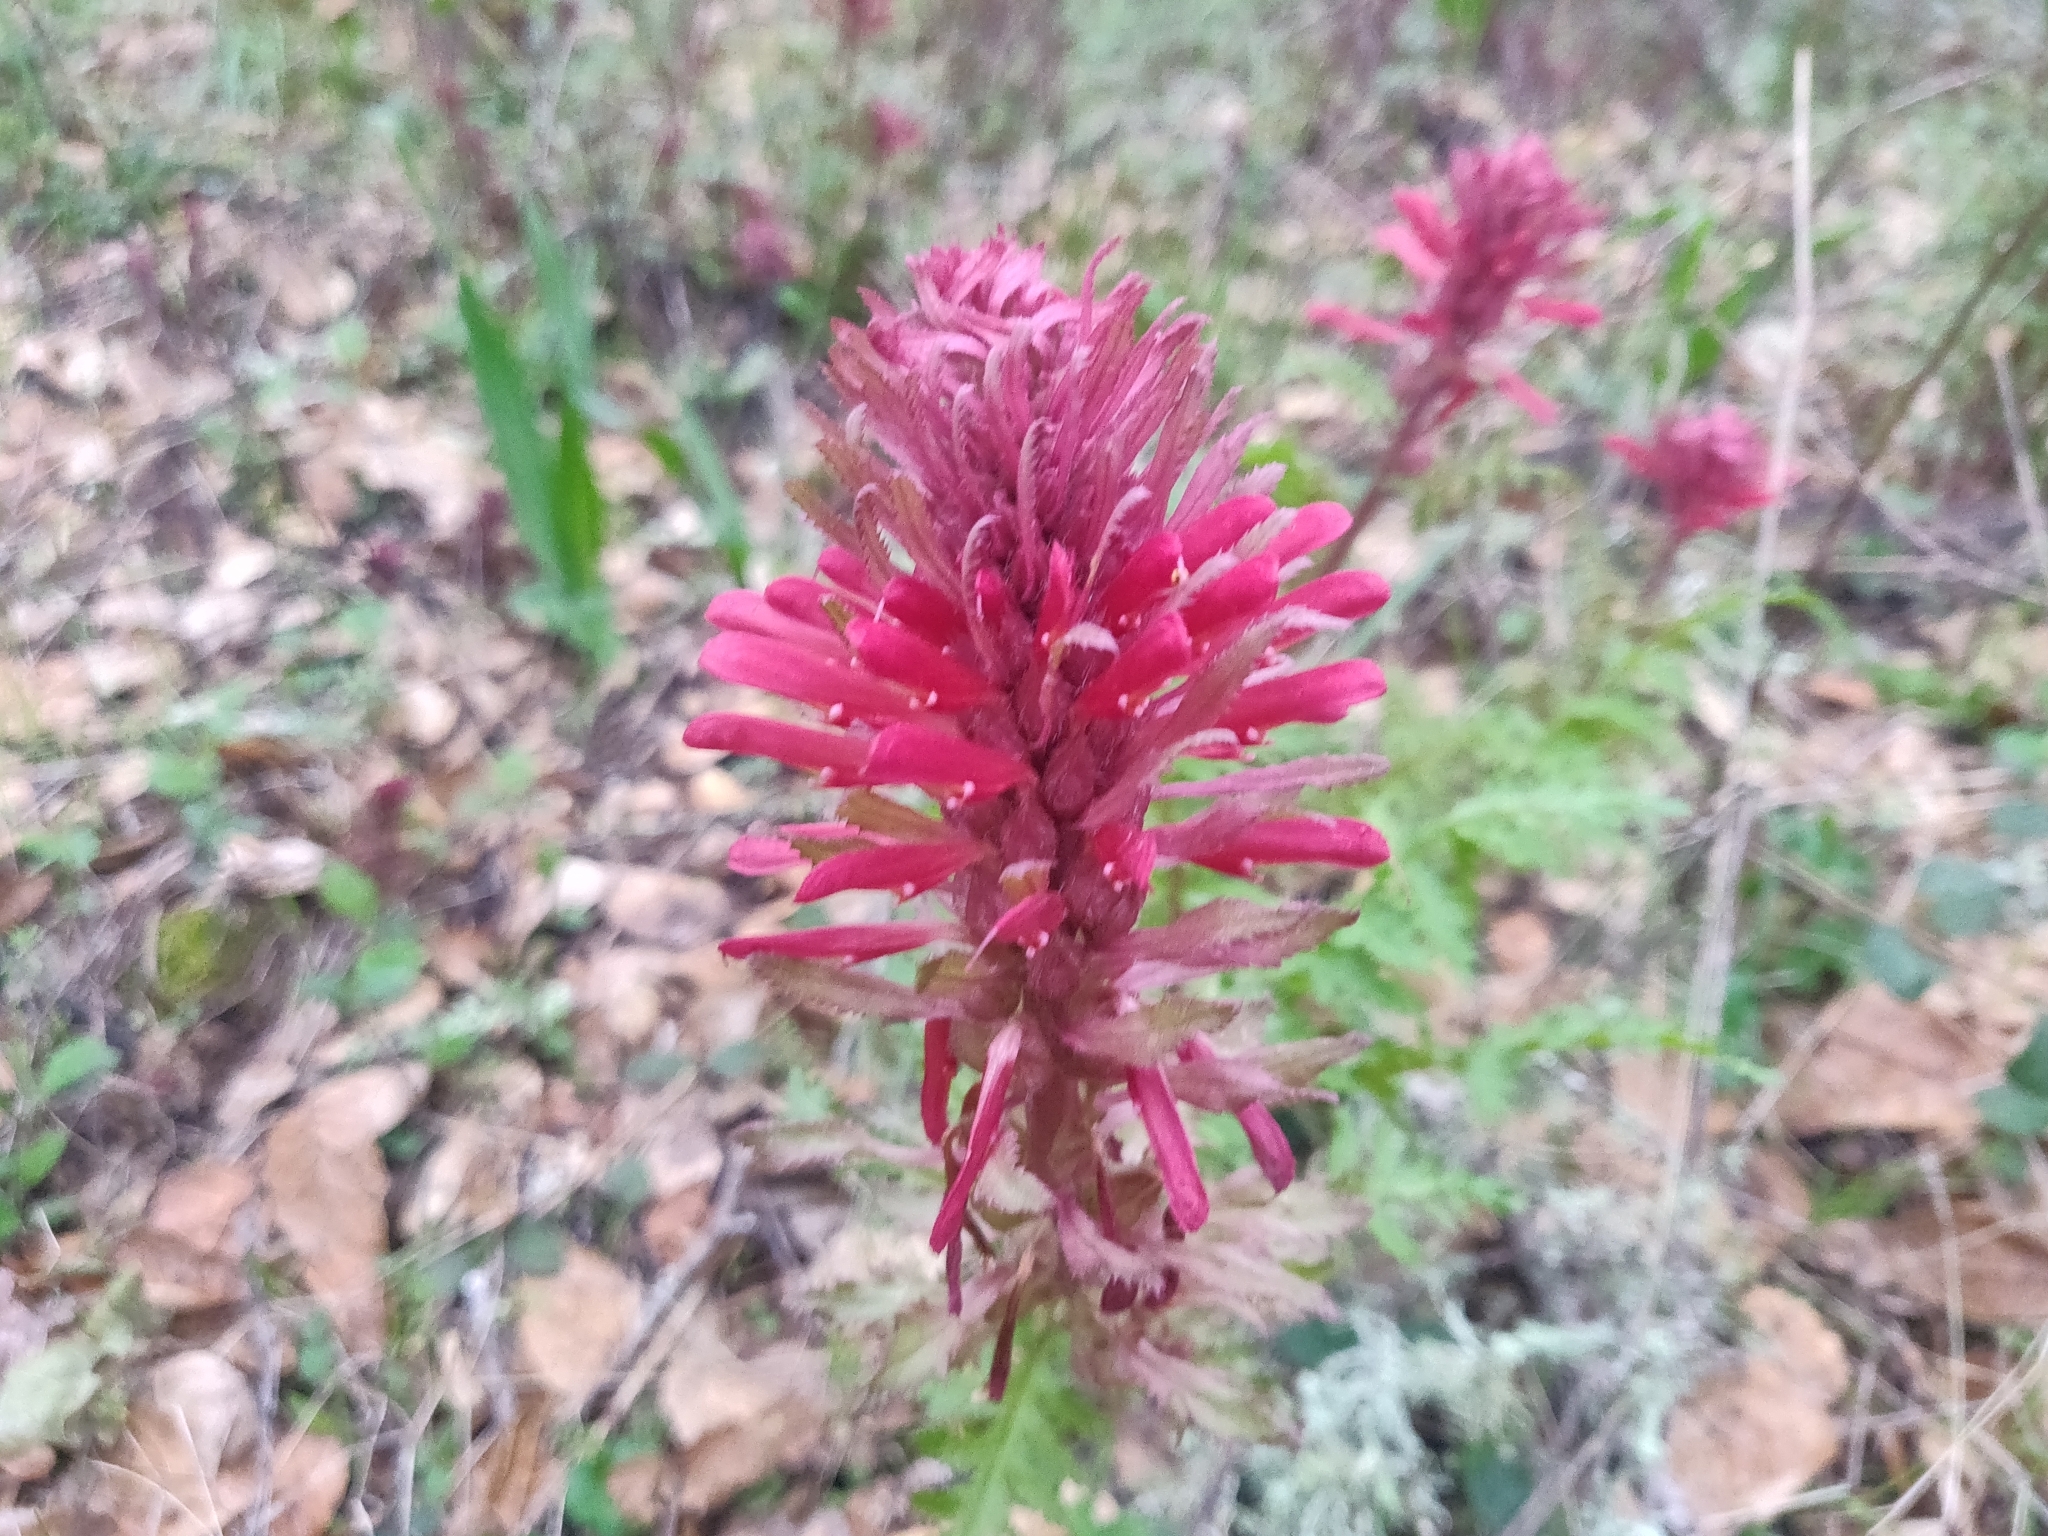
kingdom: Plantae
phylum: Tracheophyta
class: Magnoliopsida
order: Lamiales
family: Orobanchaceae
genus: Pedicularis
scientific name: Pedicularis densiflora
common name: Indian warrior
